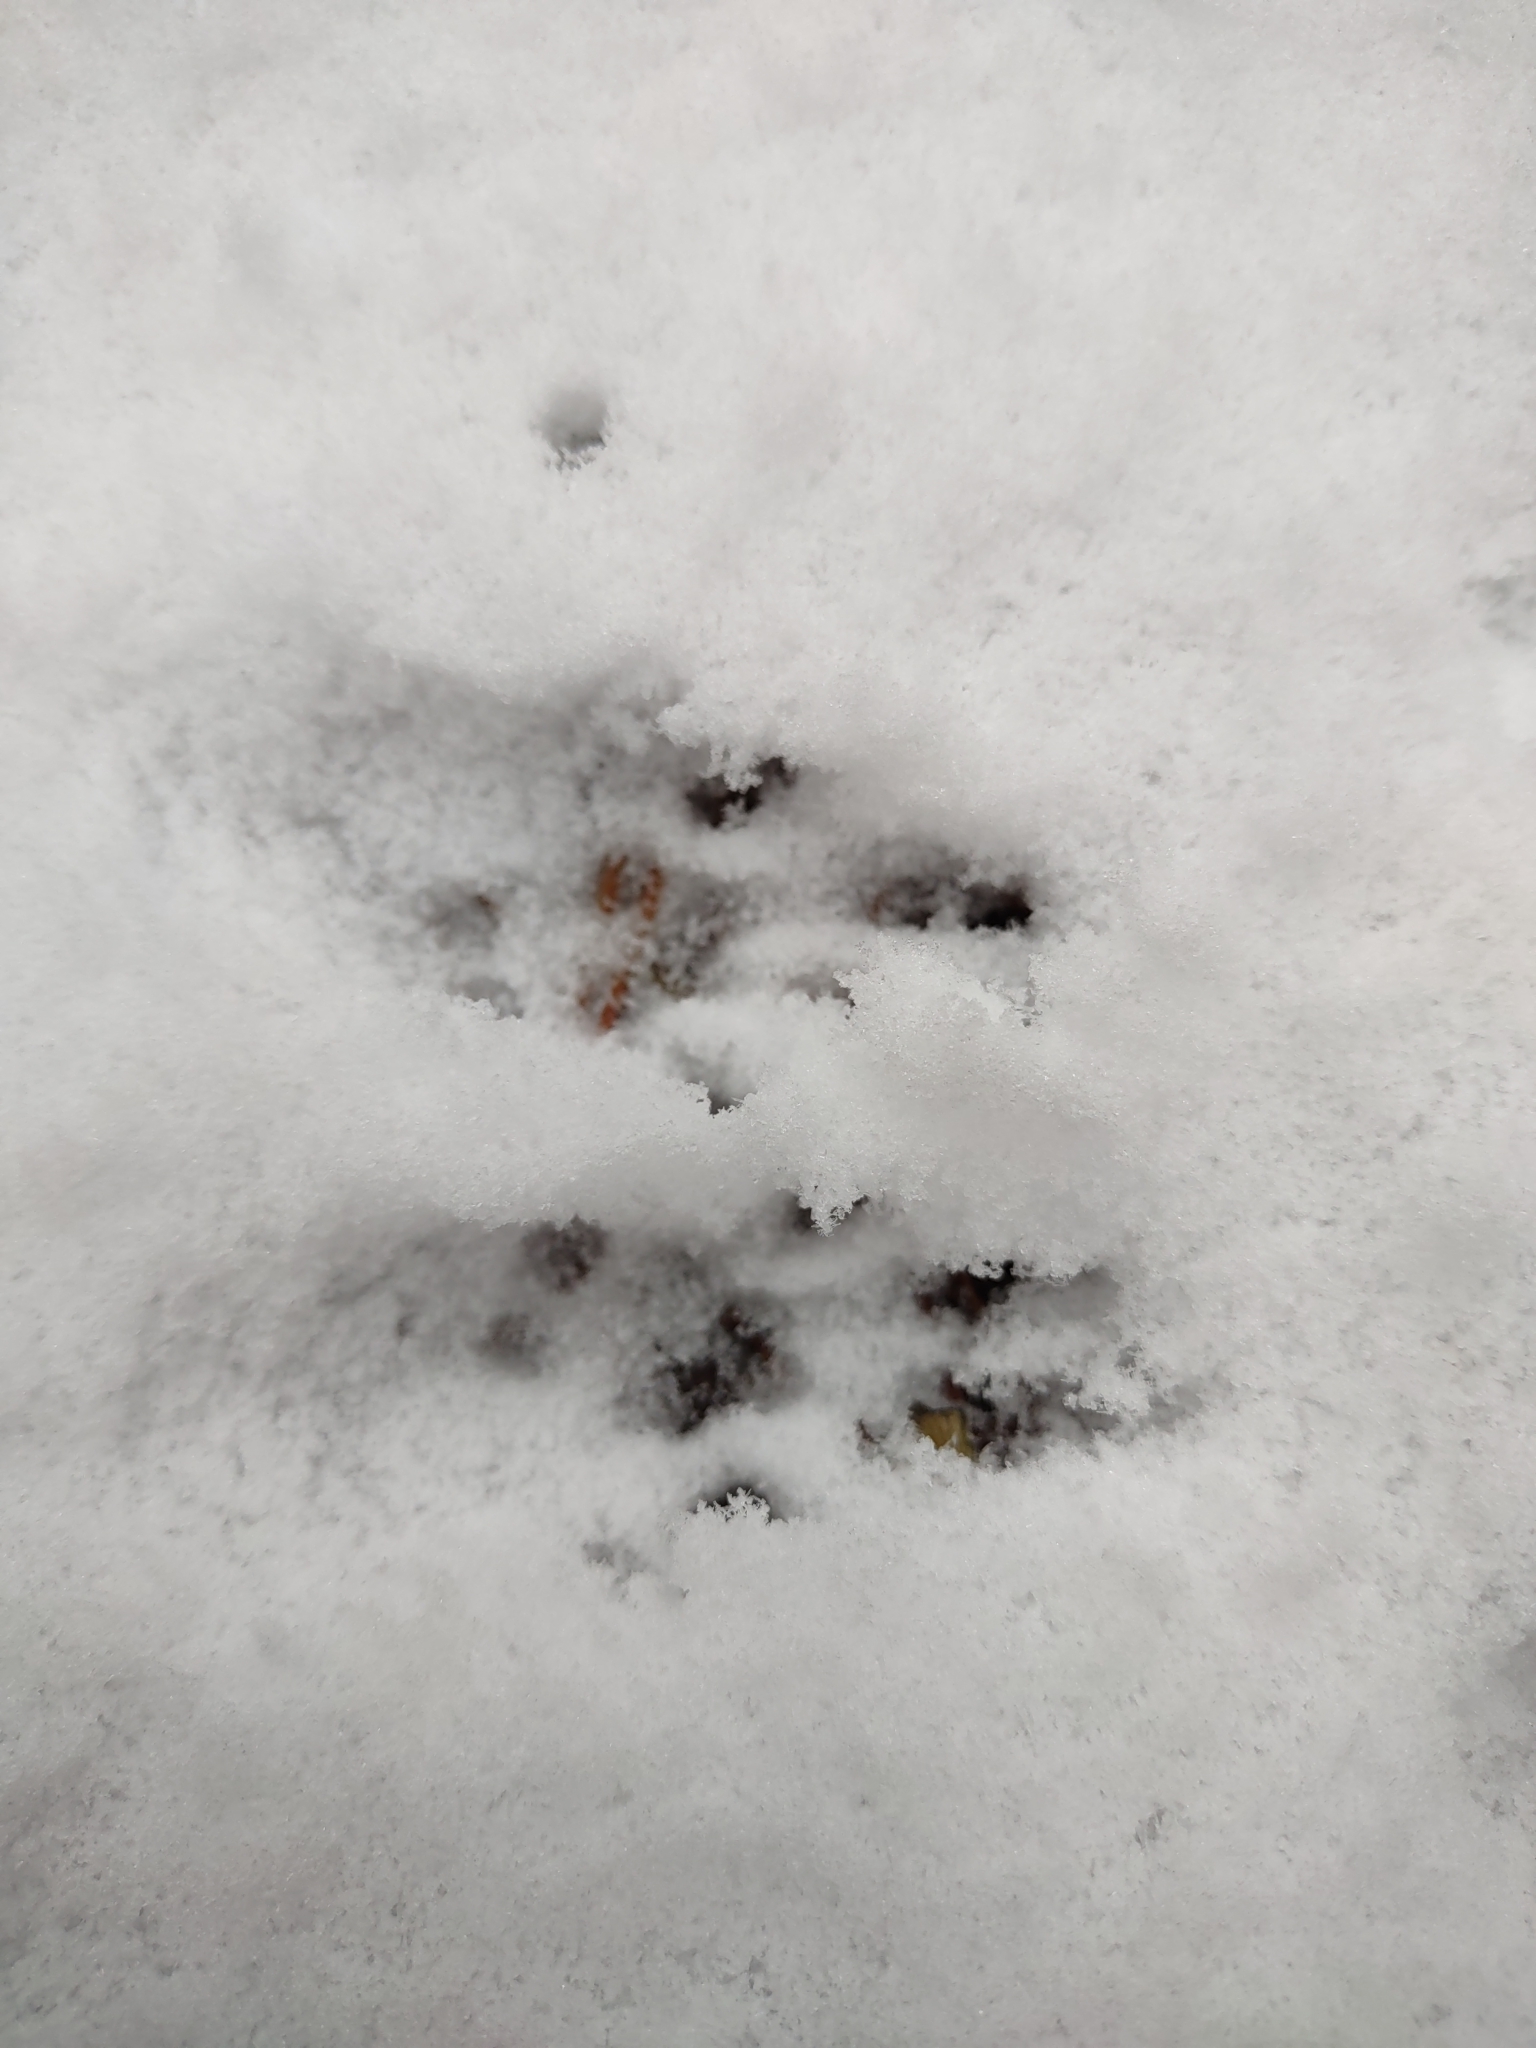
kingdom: Animalia
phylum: Chordata
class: Mammalia
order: Rodentia
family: Sciuridae
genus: Sciurus
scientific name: Sciurus vulgaris
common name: Eurasian red squirrel
